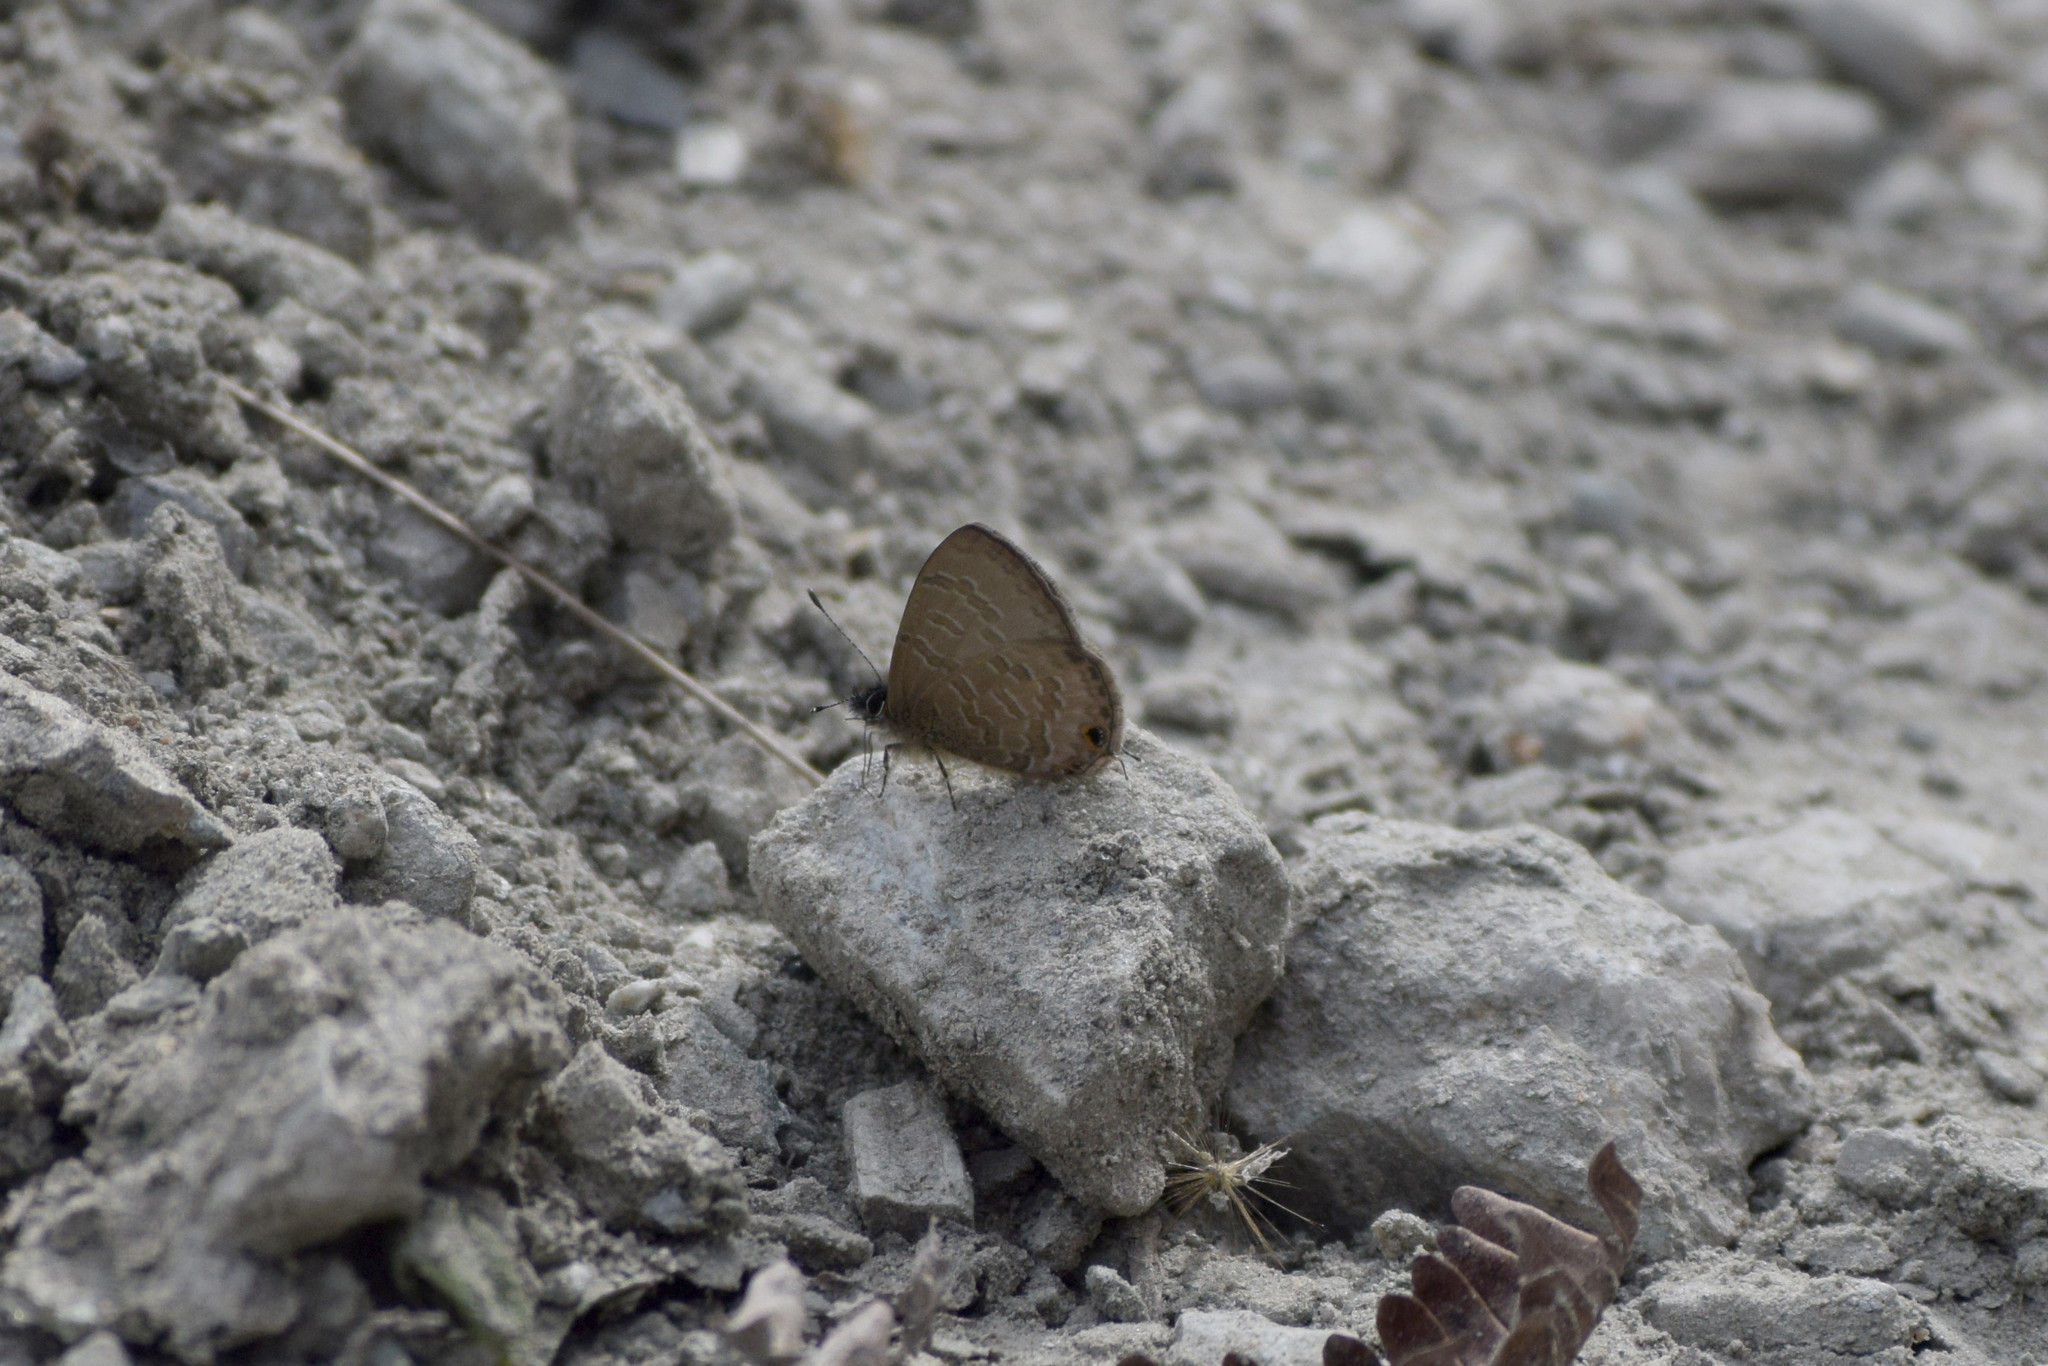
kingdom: Animalia
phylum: Arthropoda
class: Insecta
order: Lepidoptera
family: Lycaenidae
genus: Prosotas
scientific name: Prosotas nora
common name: Common line blue
